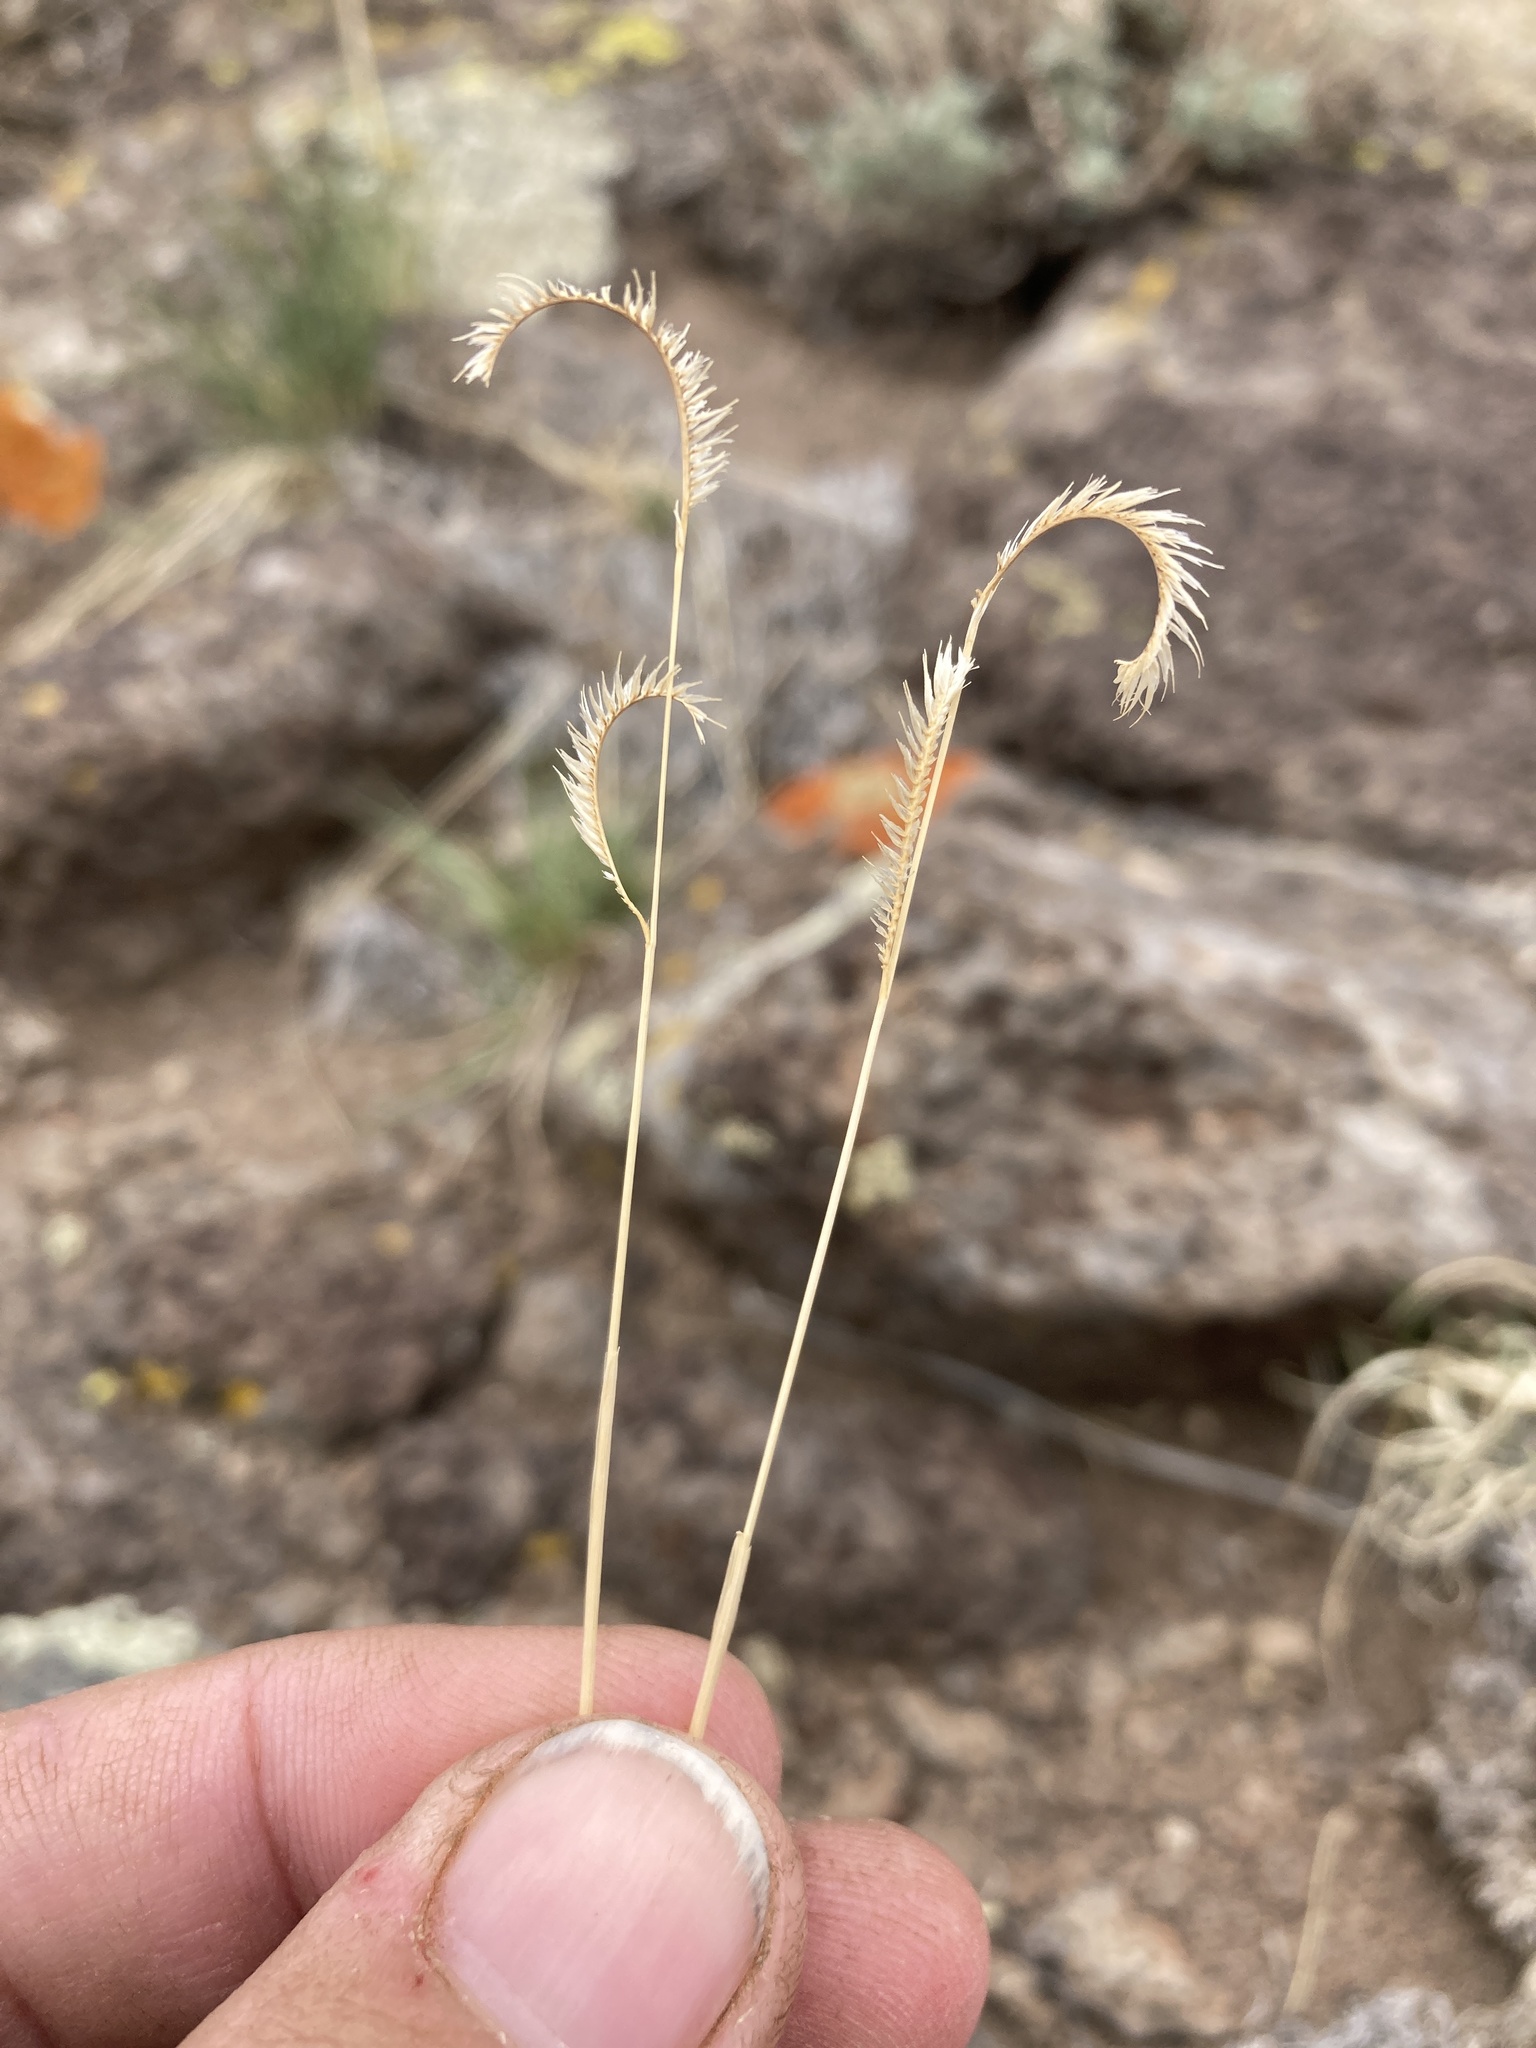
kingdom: Plantae
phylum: Tracheophyta
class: Liliopsida
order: Poales
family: Poaceae
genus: Bouteloua
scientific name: Bouteloua gracilis
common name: Blue grama
